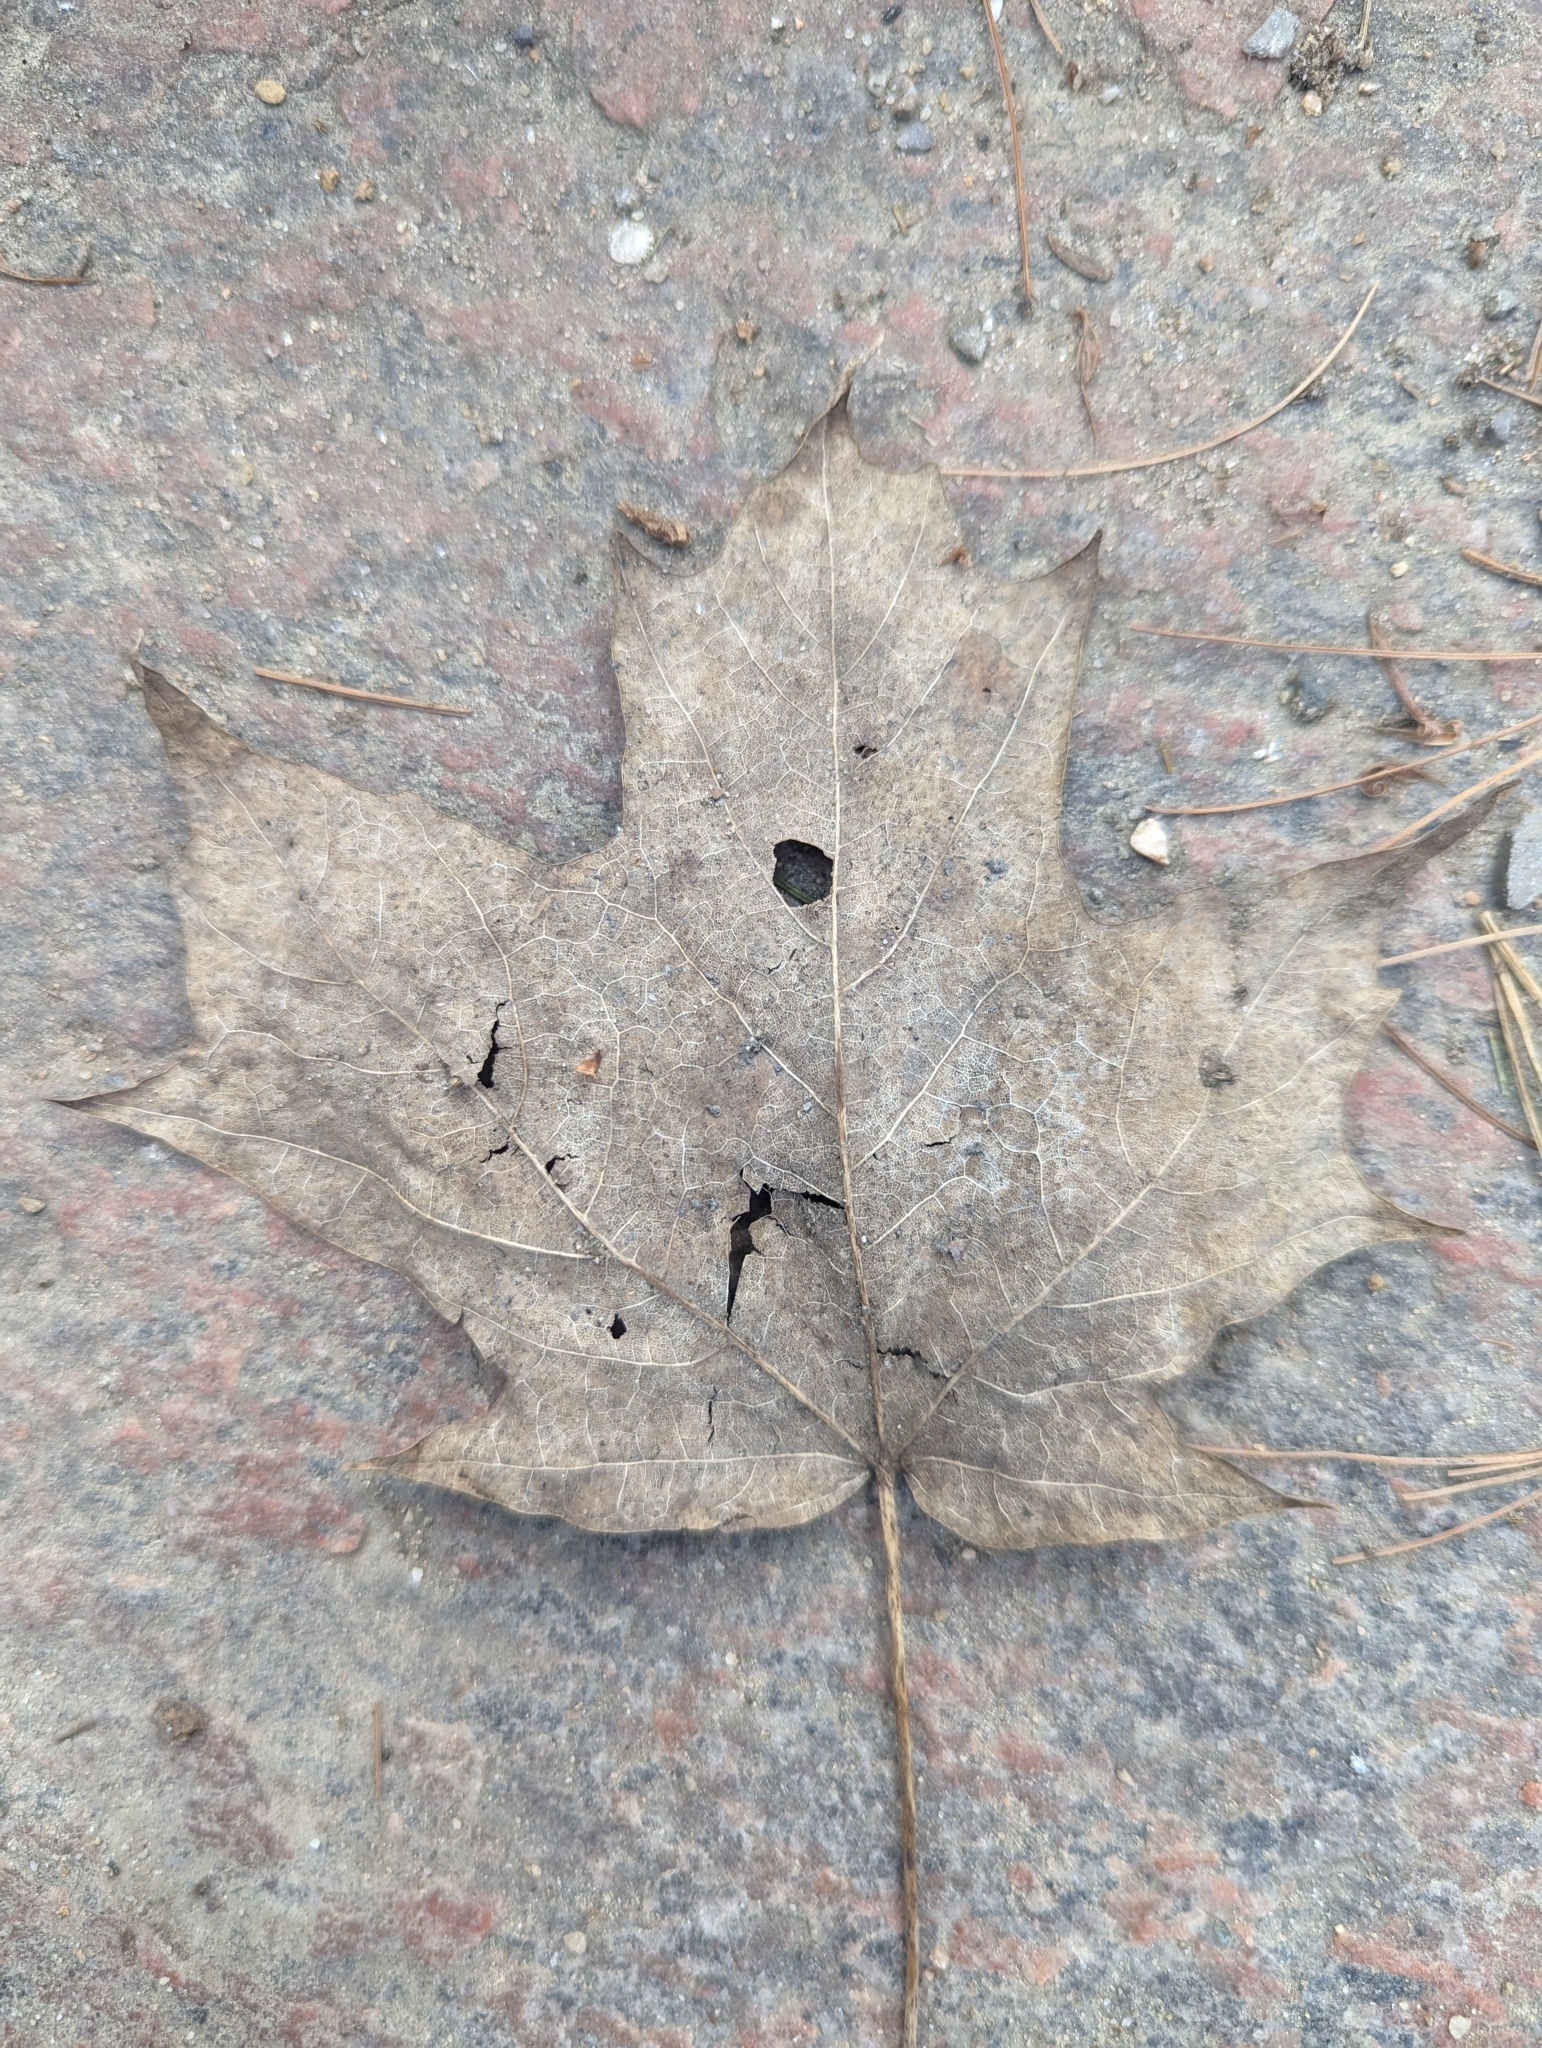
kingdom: Plantae
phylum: Tracheophyta
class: Magnoliopsida
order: Sapindales
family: Sapindaceae
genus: Acer
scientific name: Acer saccharum
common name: Sugar maple
